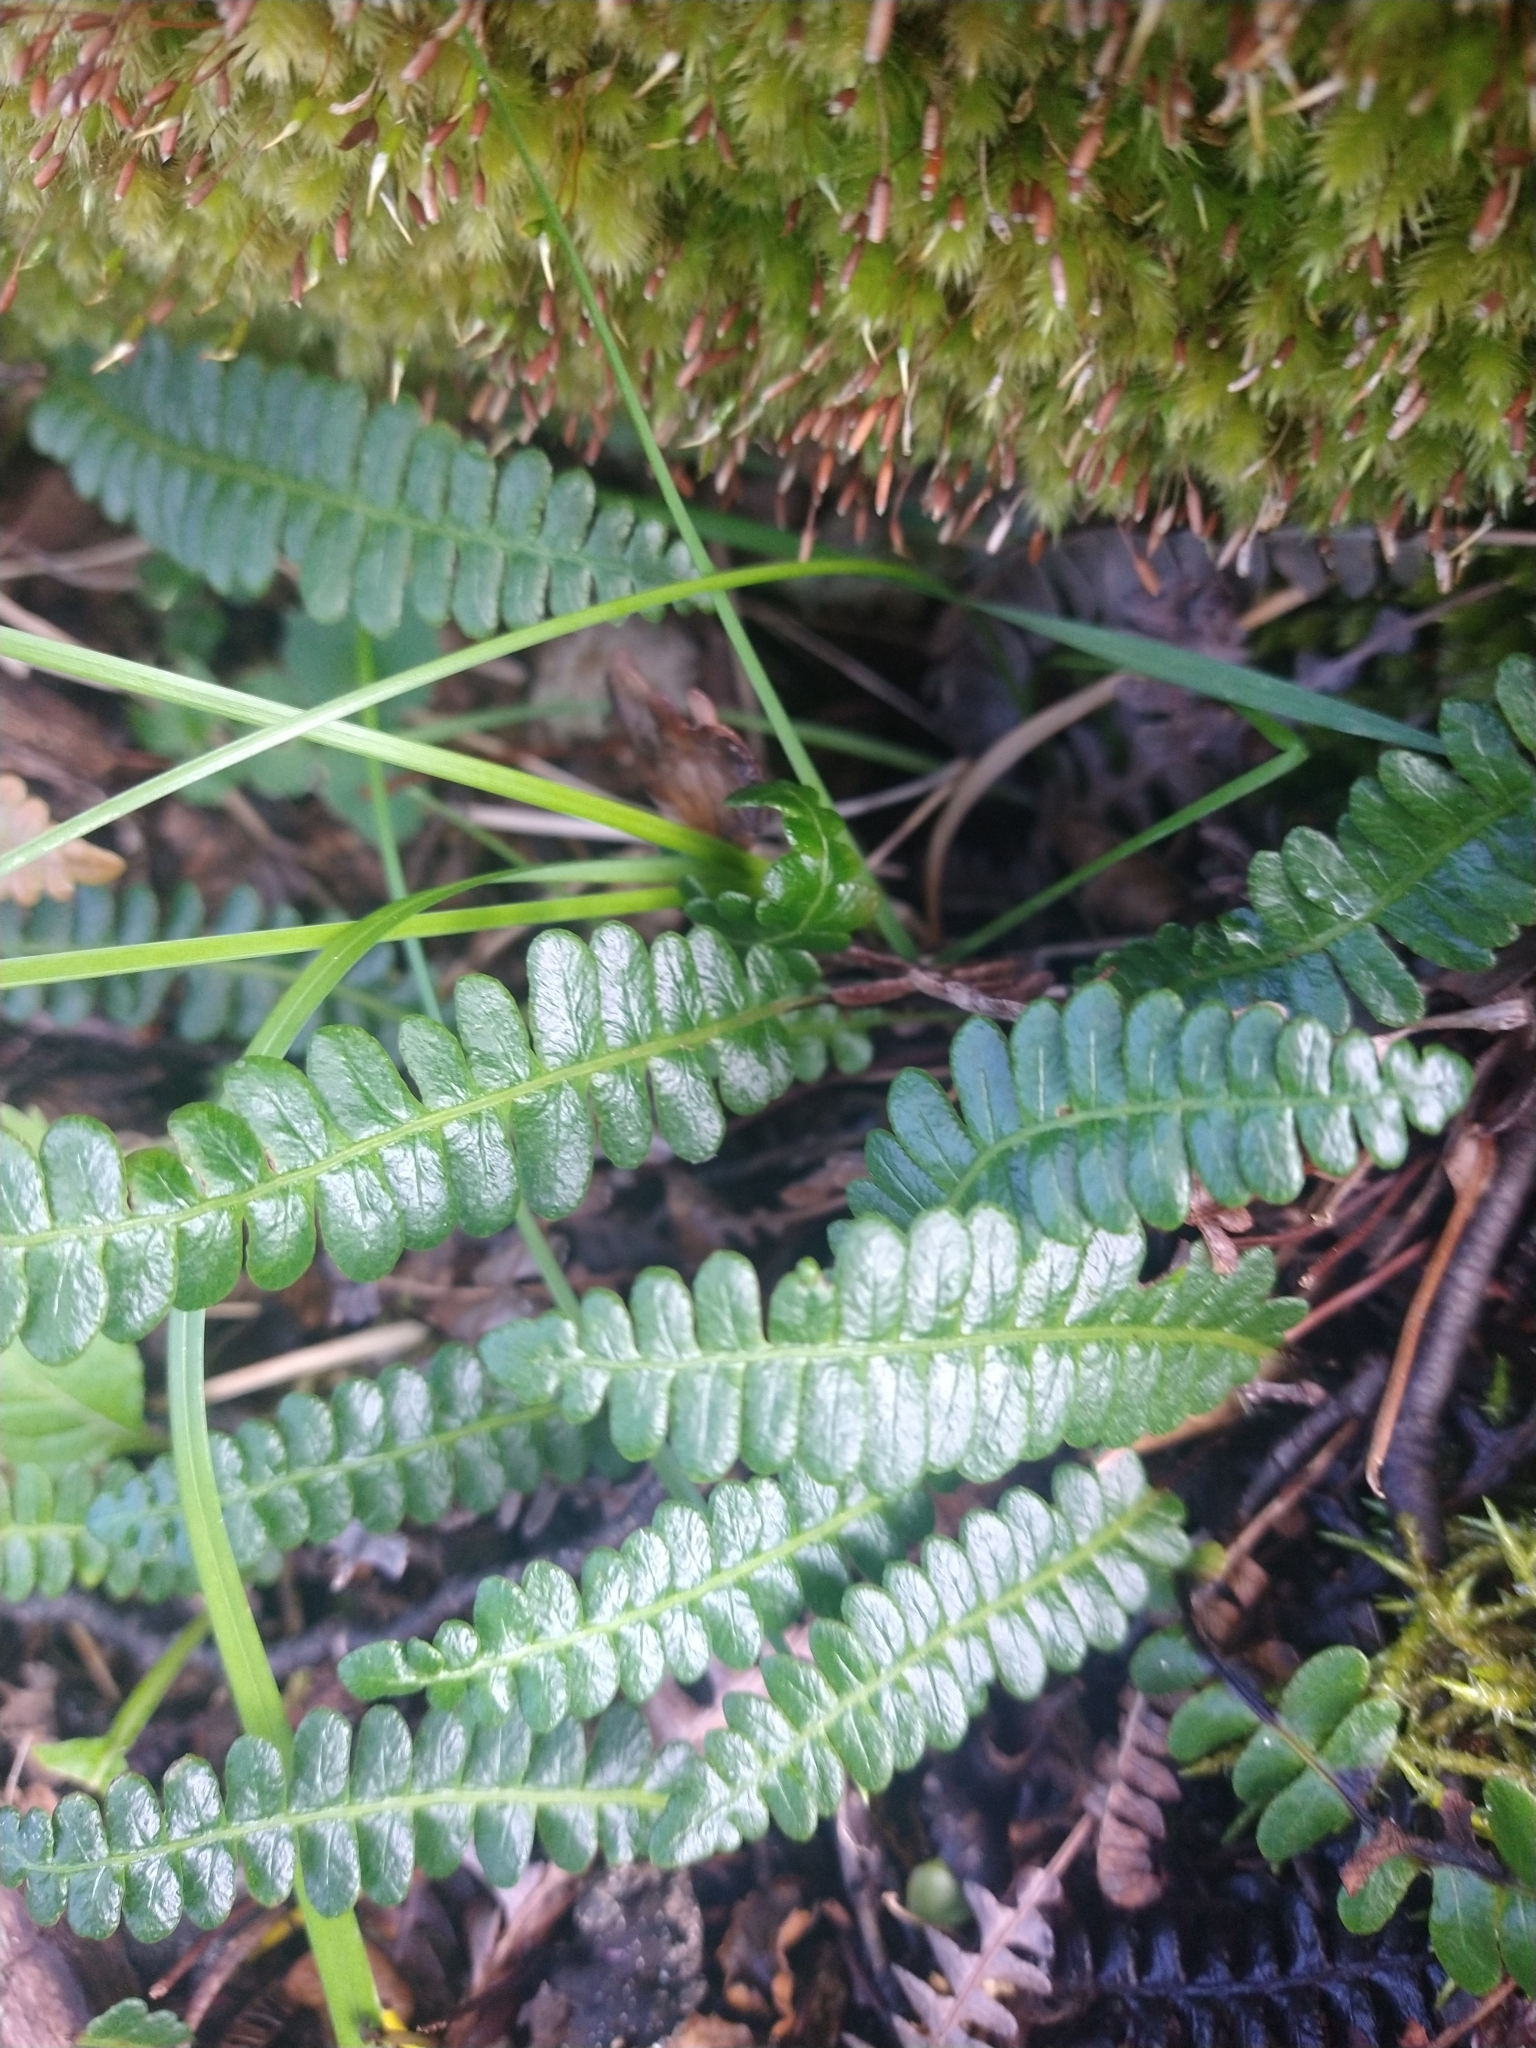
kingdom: Plantae
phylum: Tracheophyta
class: Polypodiopsida
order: Polypodiales
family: Blechnaceae
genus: Austroblechnum
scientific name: Austroblechnum penna-marina
